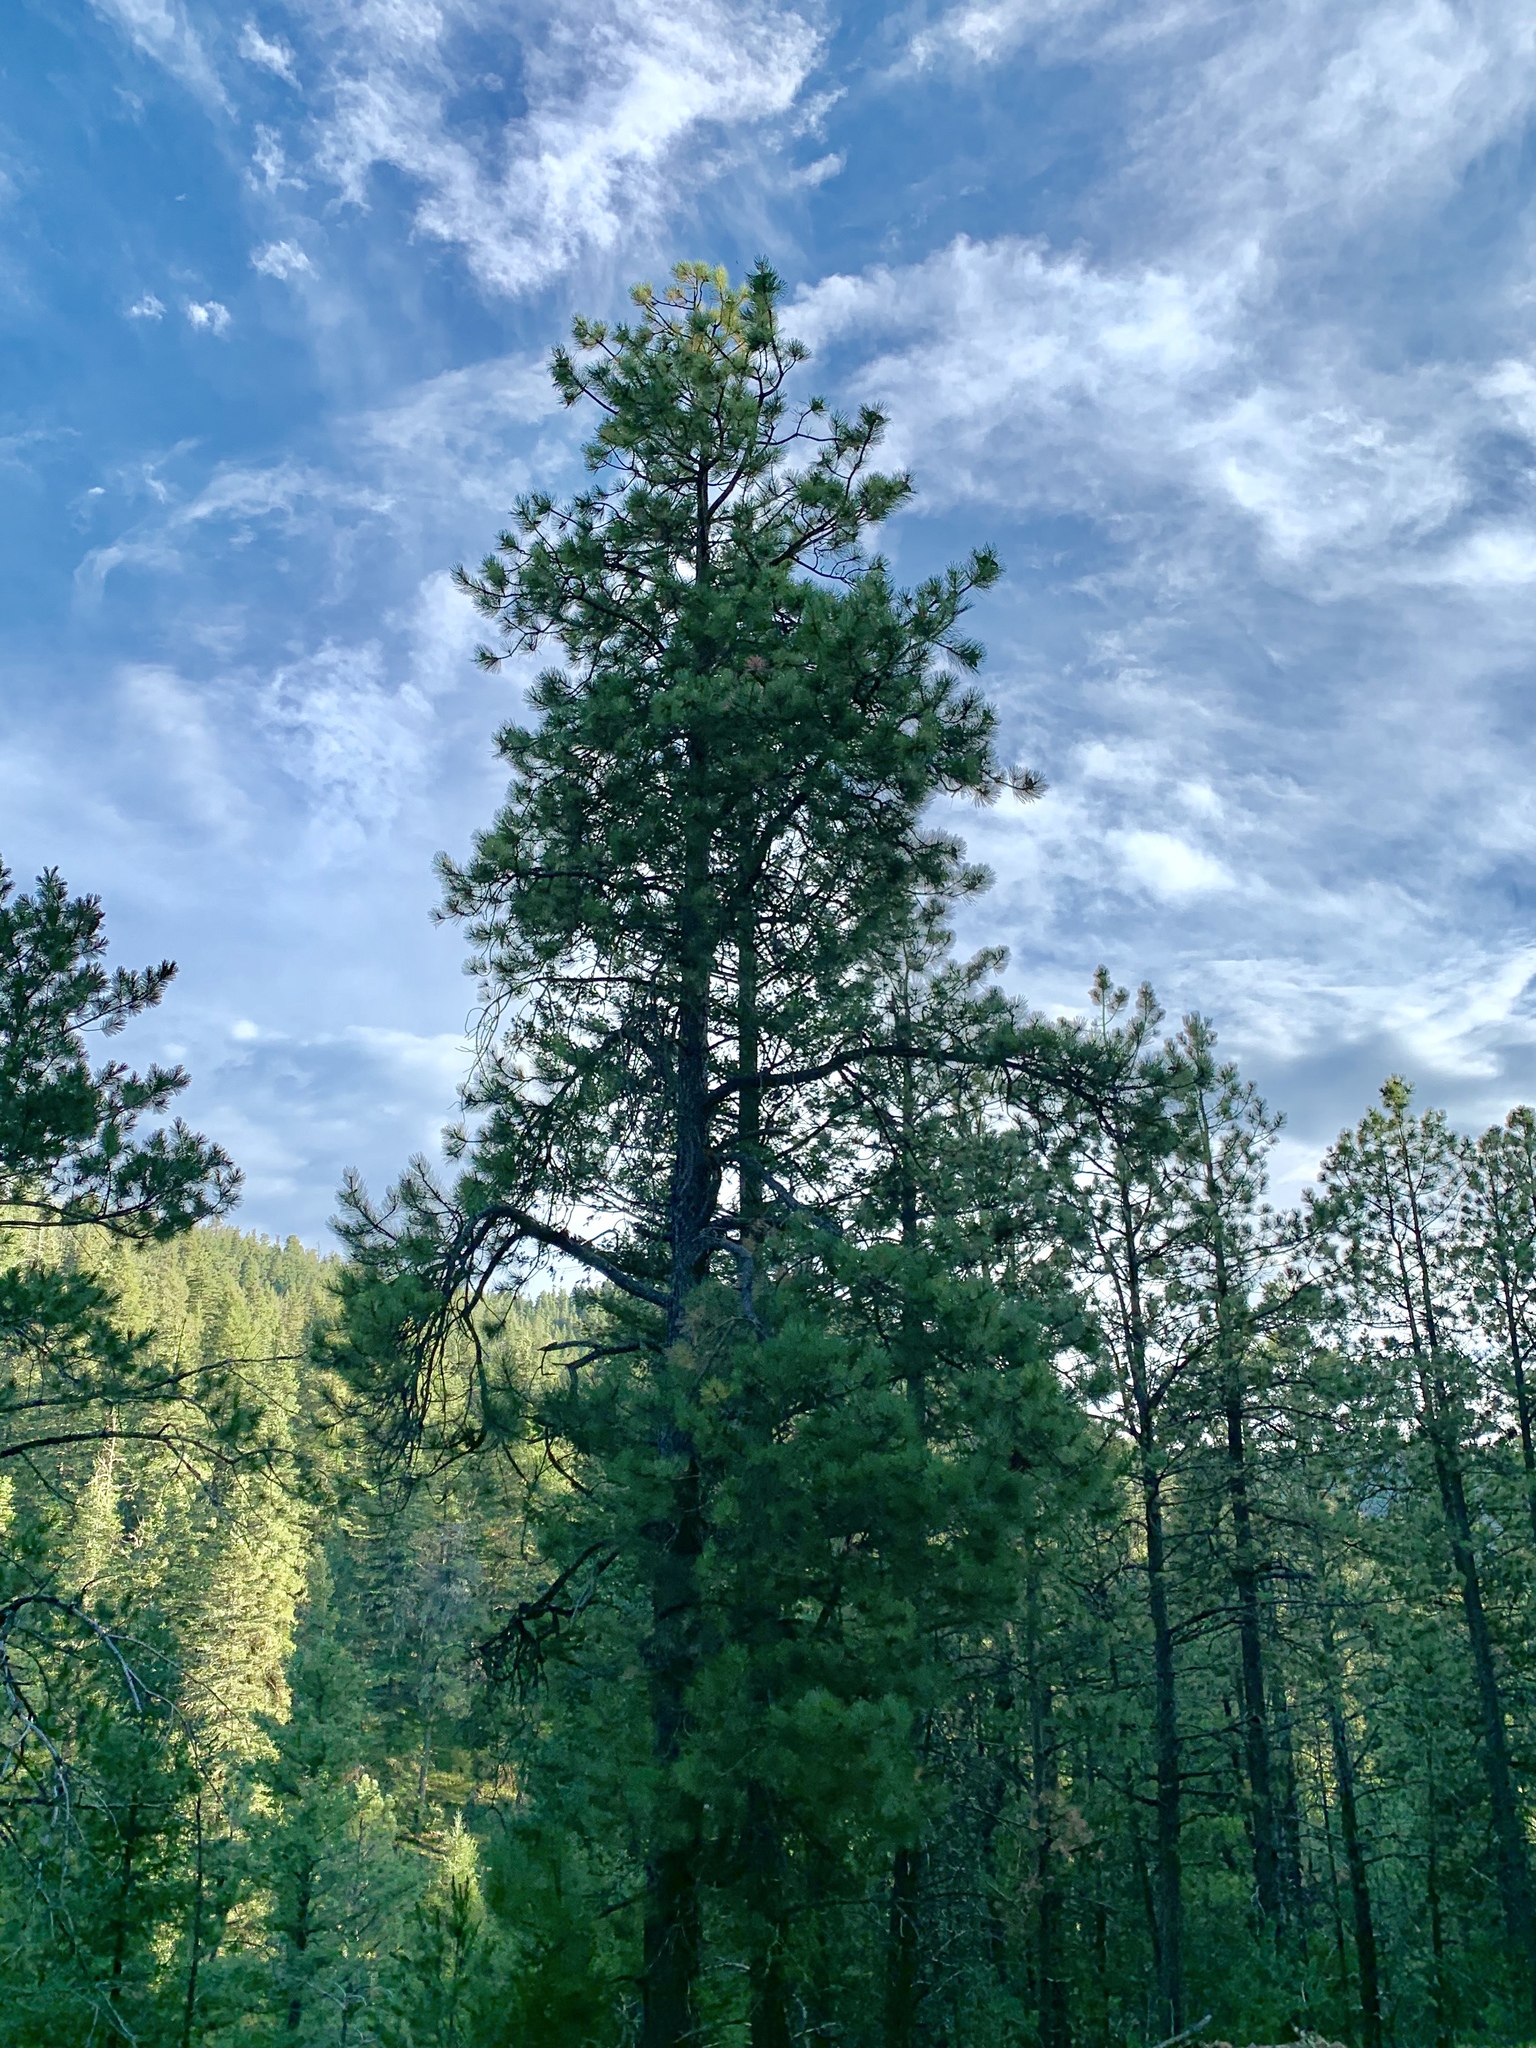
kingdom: Plantae
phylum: Tracheophyta
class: Pinopsida
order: Pinales
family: Pinaceae
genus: Pinus
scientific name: Pinus ponderosa
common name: Western yellow-pine
